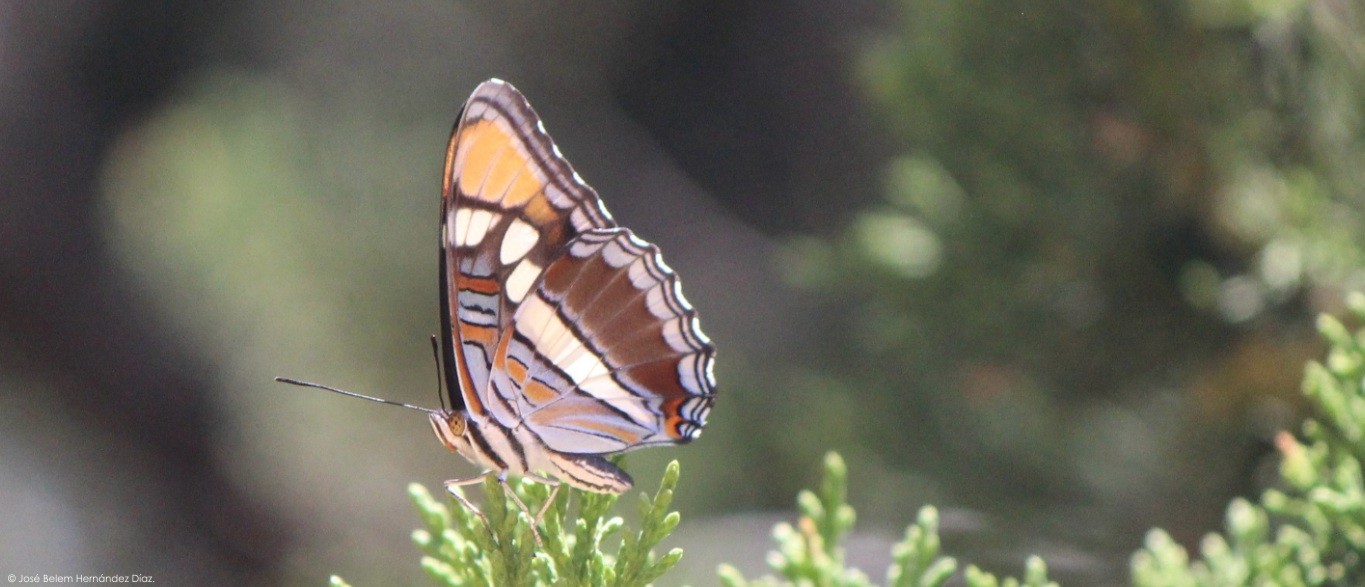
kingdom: Animalia
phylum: Arthropoda
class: Insecta
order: Lepidoptera
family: Nymphalidae
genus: Limenitis
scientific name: Limenitis bredowii
